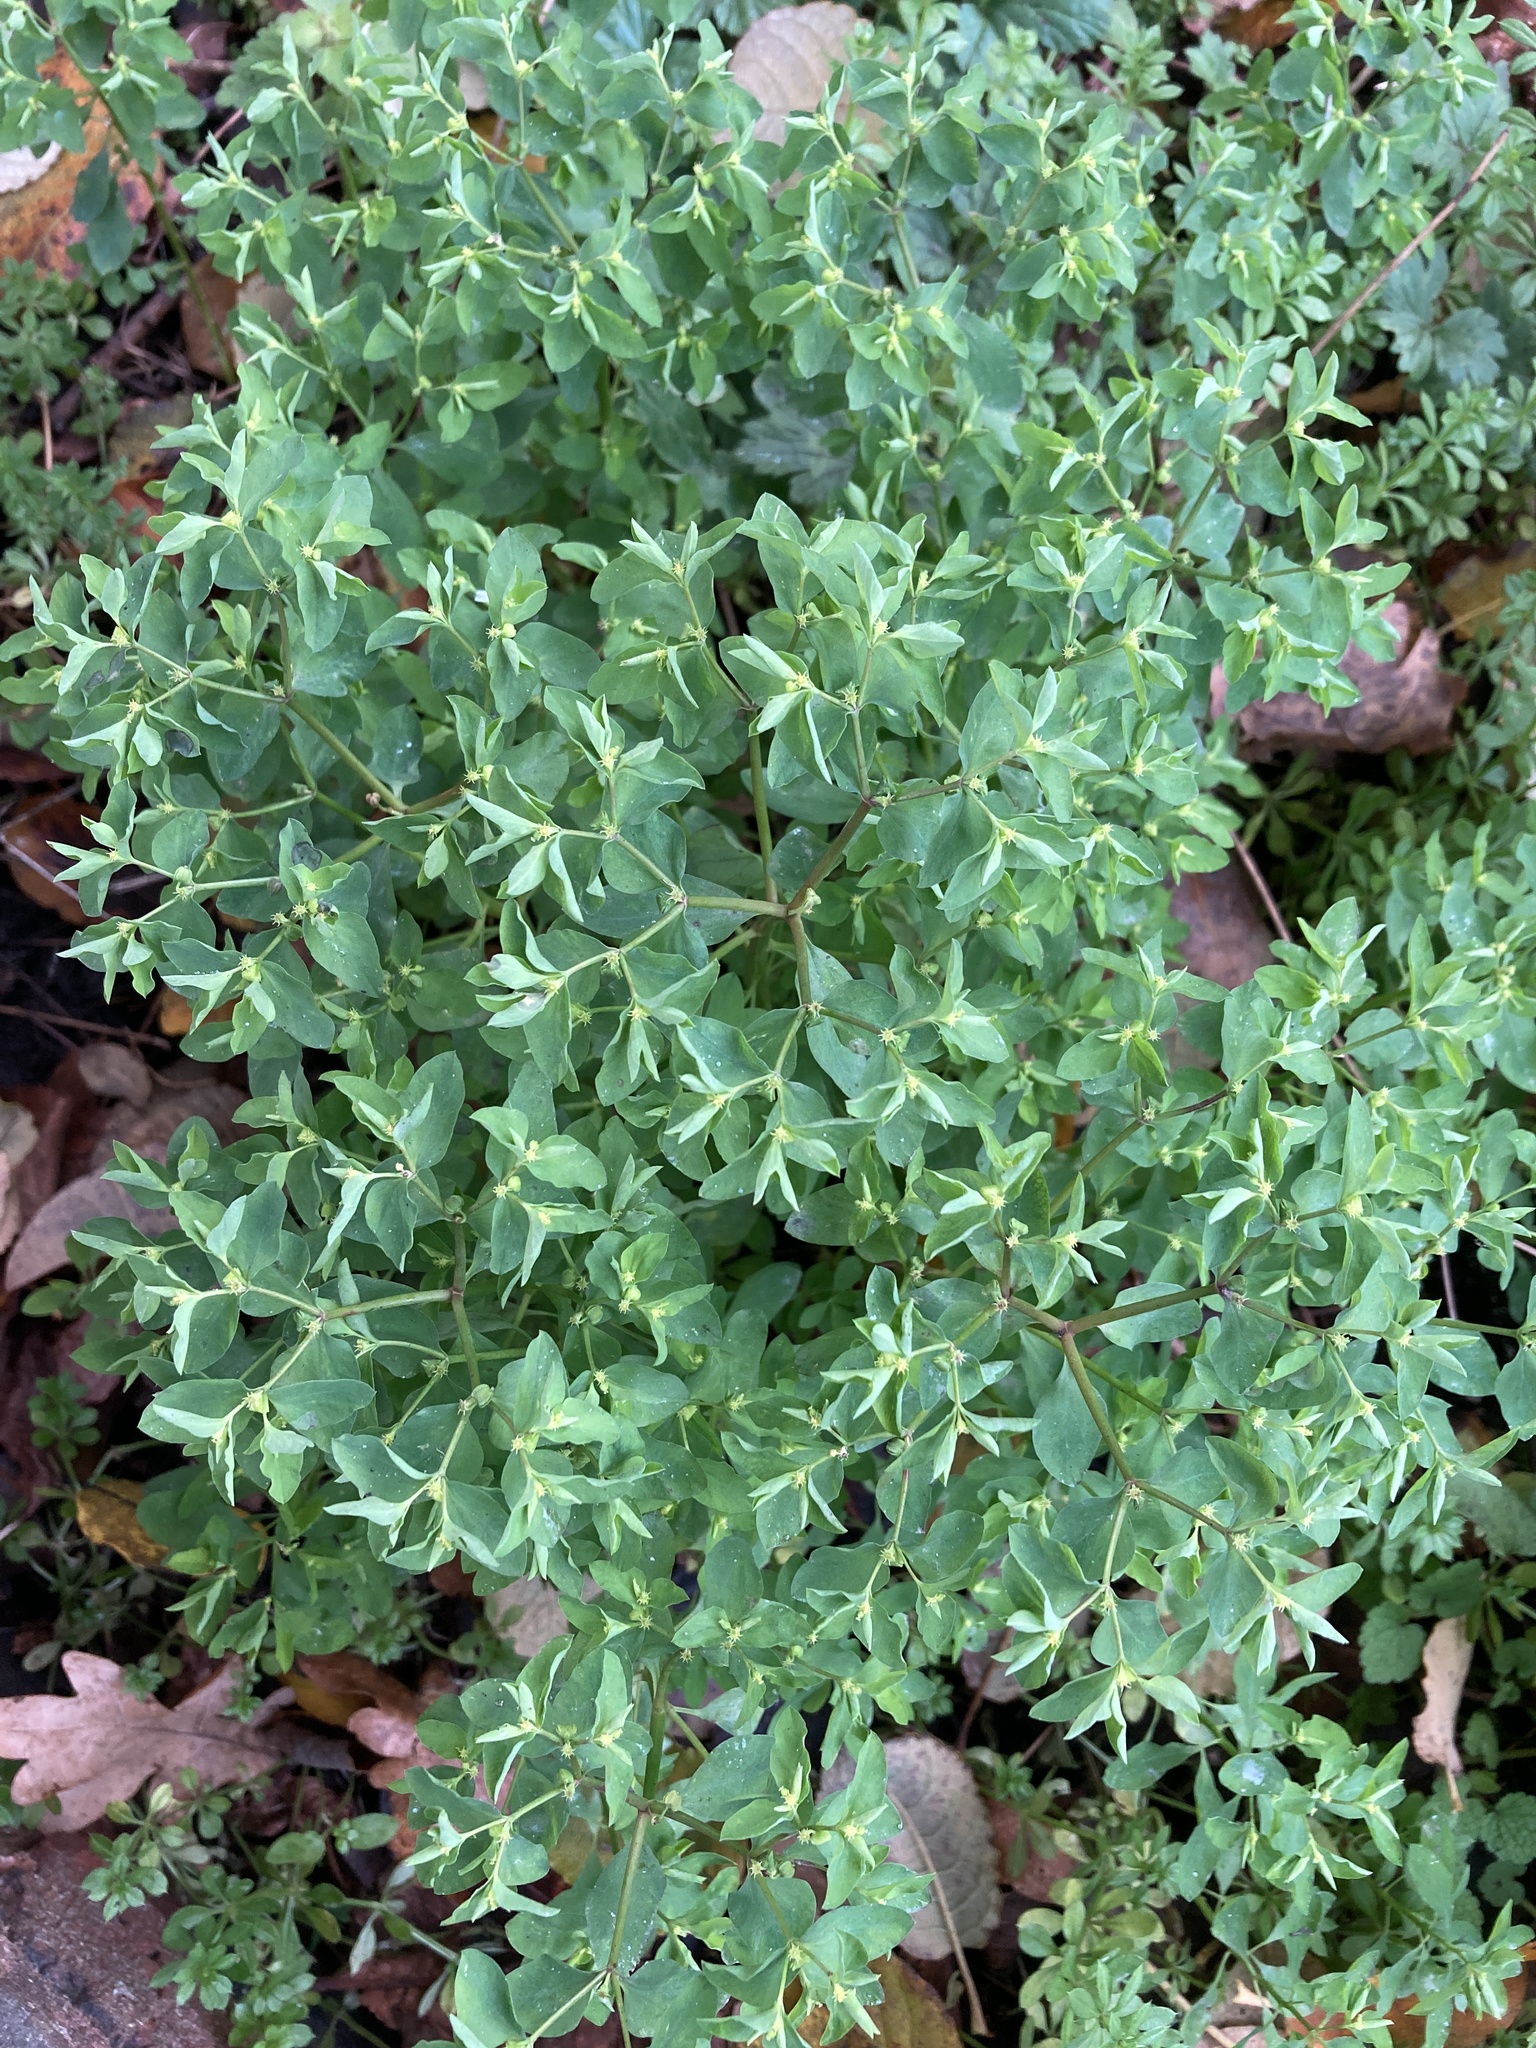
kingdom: Plantae
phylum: Tracheophyta
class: Magnoliopsida
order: Malpighiales
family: Euphorbiaceae
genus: Euphorbia
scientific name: Euphorbia peplus
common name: Petty spurge
